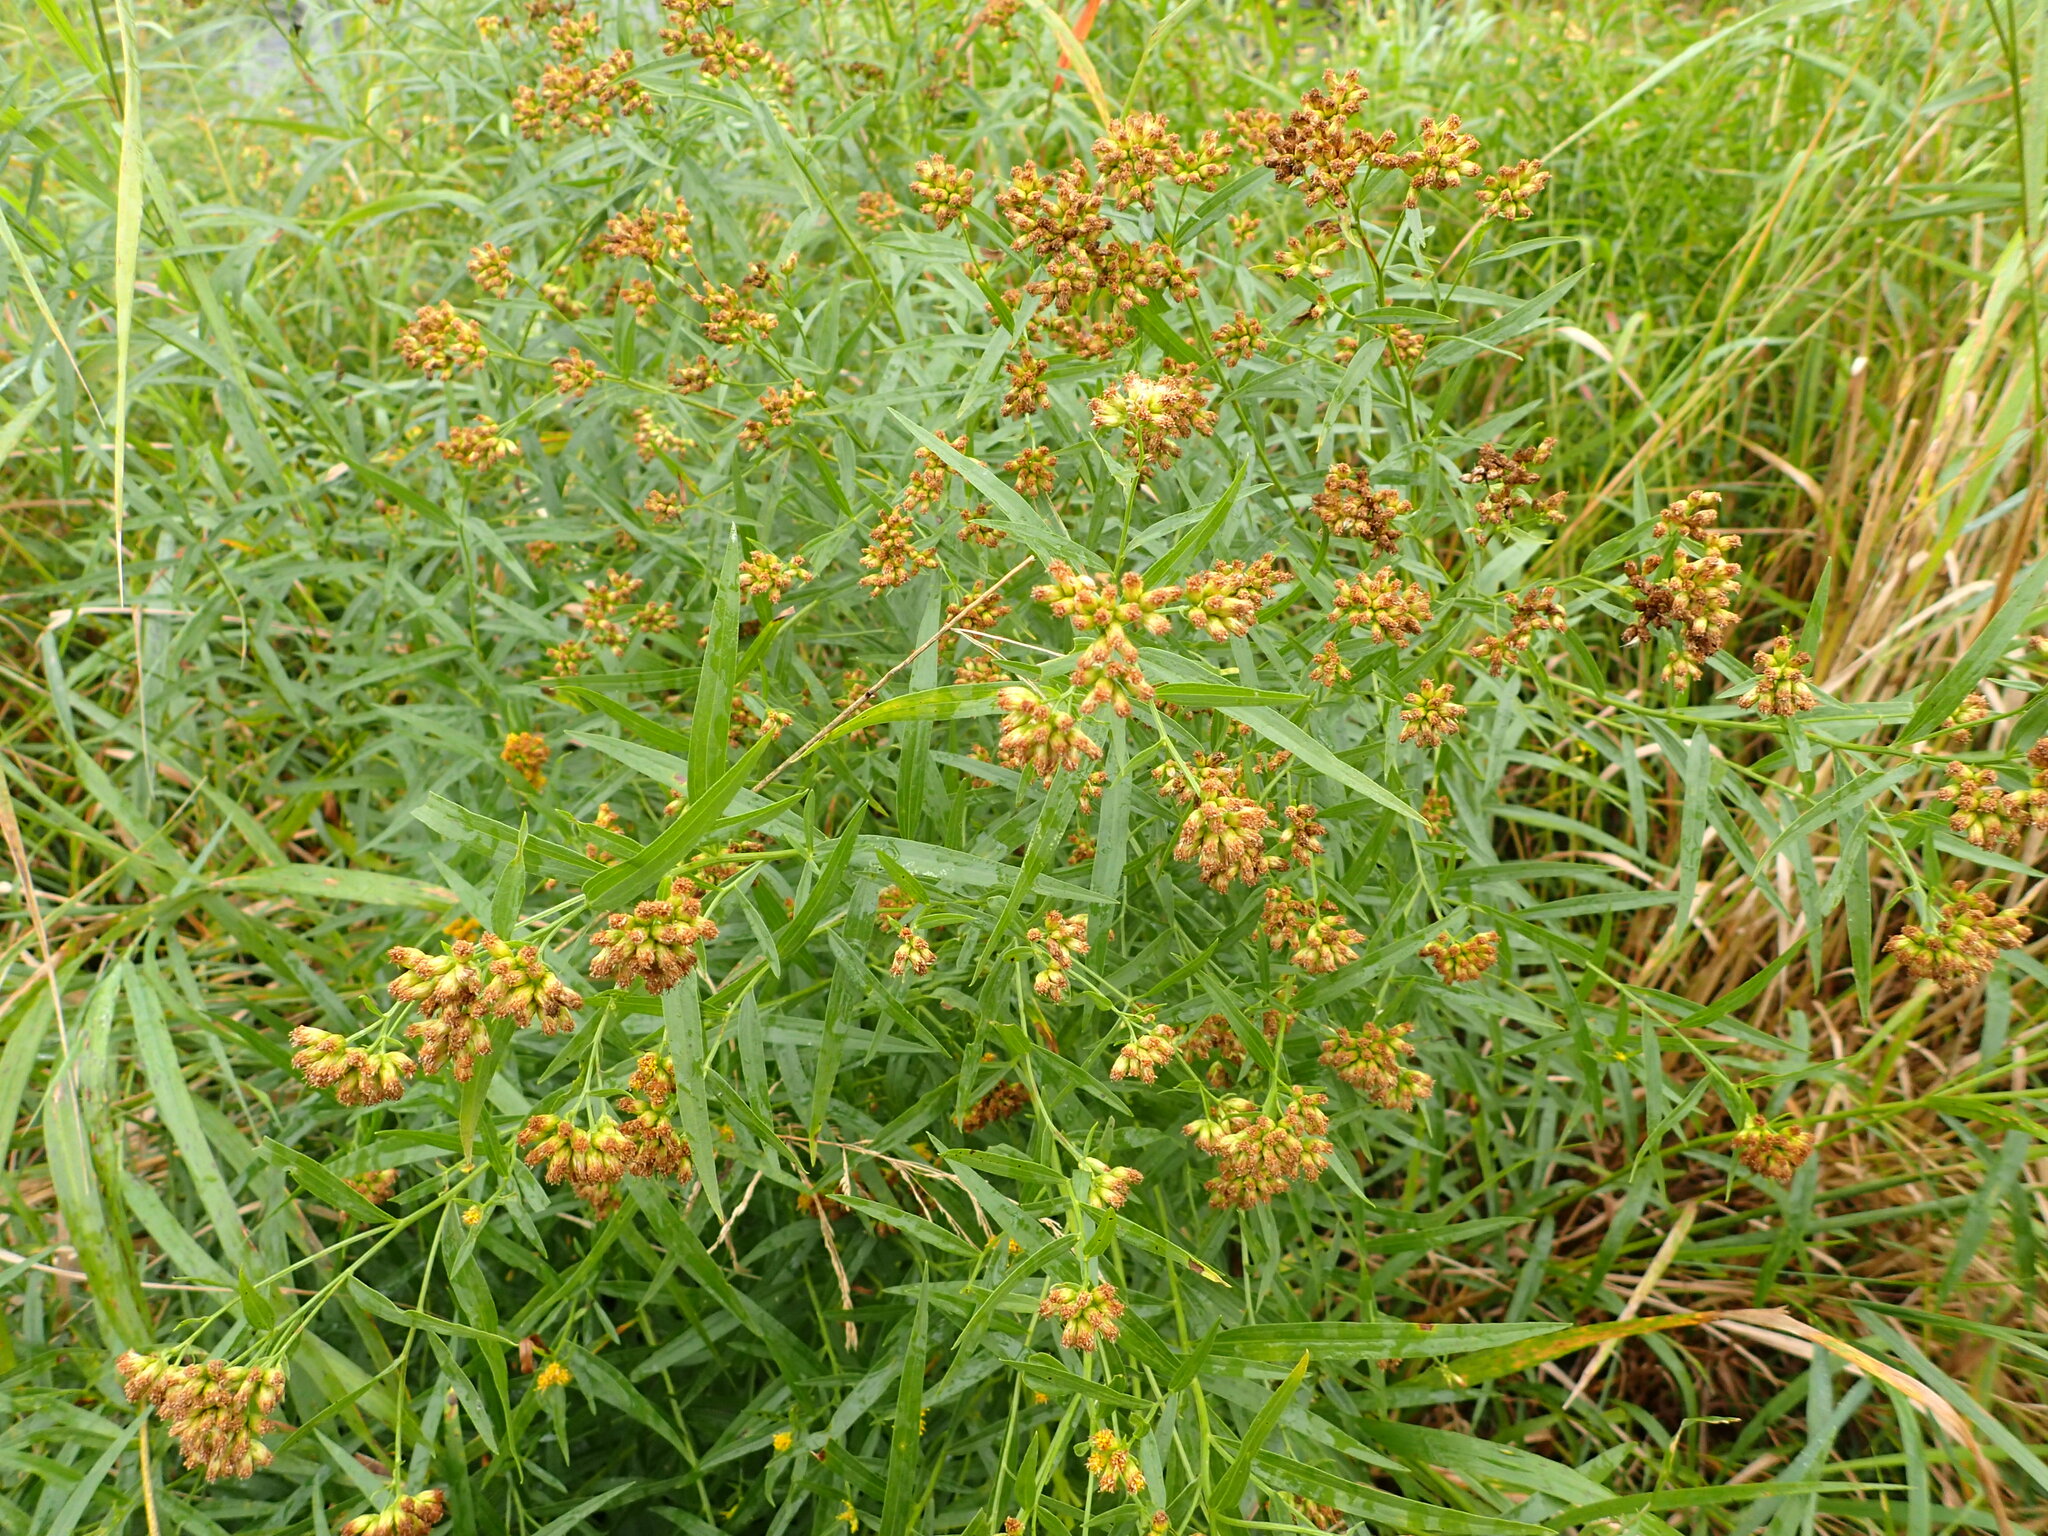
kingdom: Plantae
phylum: Tracheophyta
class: Magnoliopsida
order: Asterales
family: Asteraceae
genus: Euthamia
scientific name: Euthamia graminifolia
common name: Common goldentop
